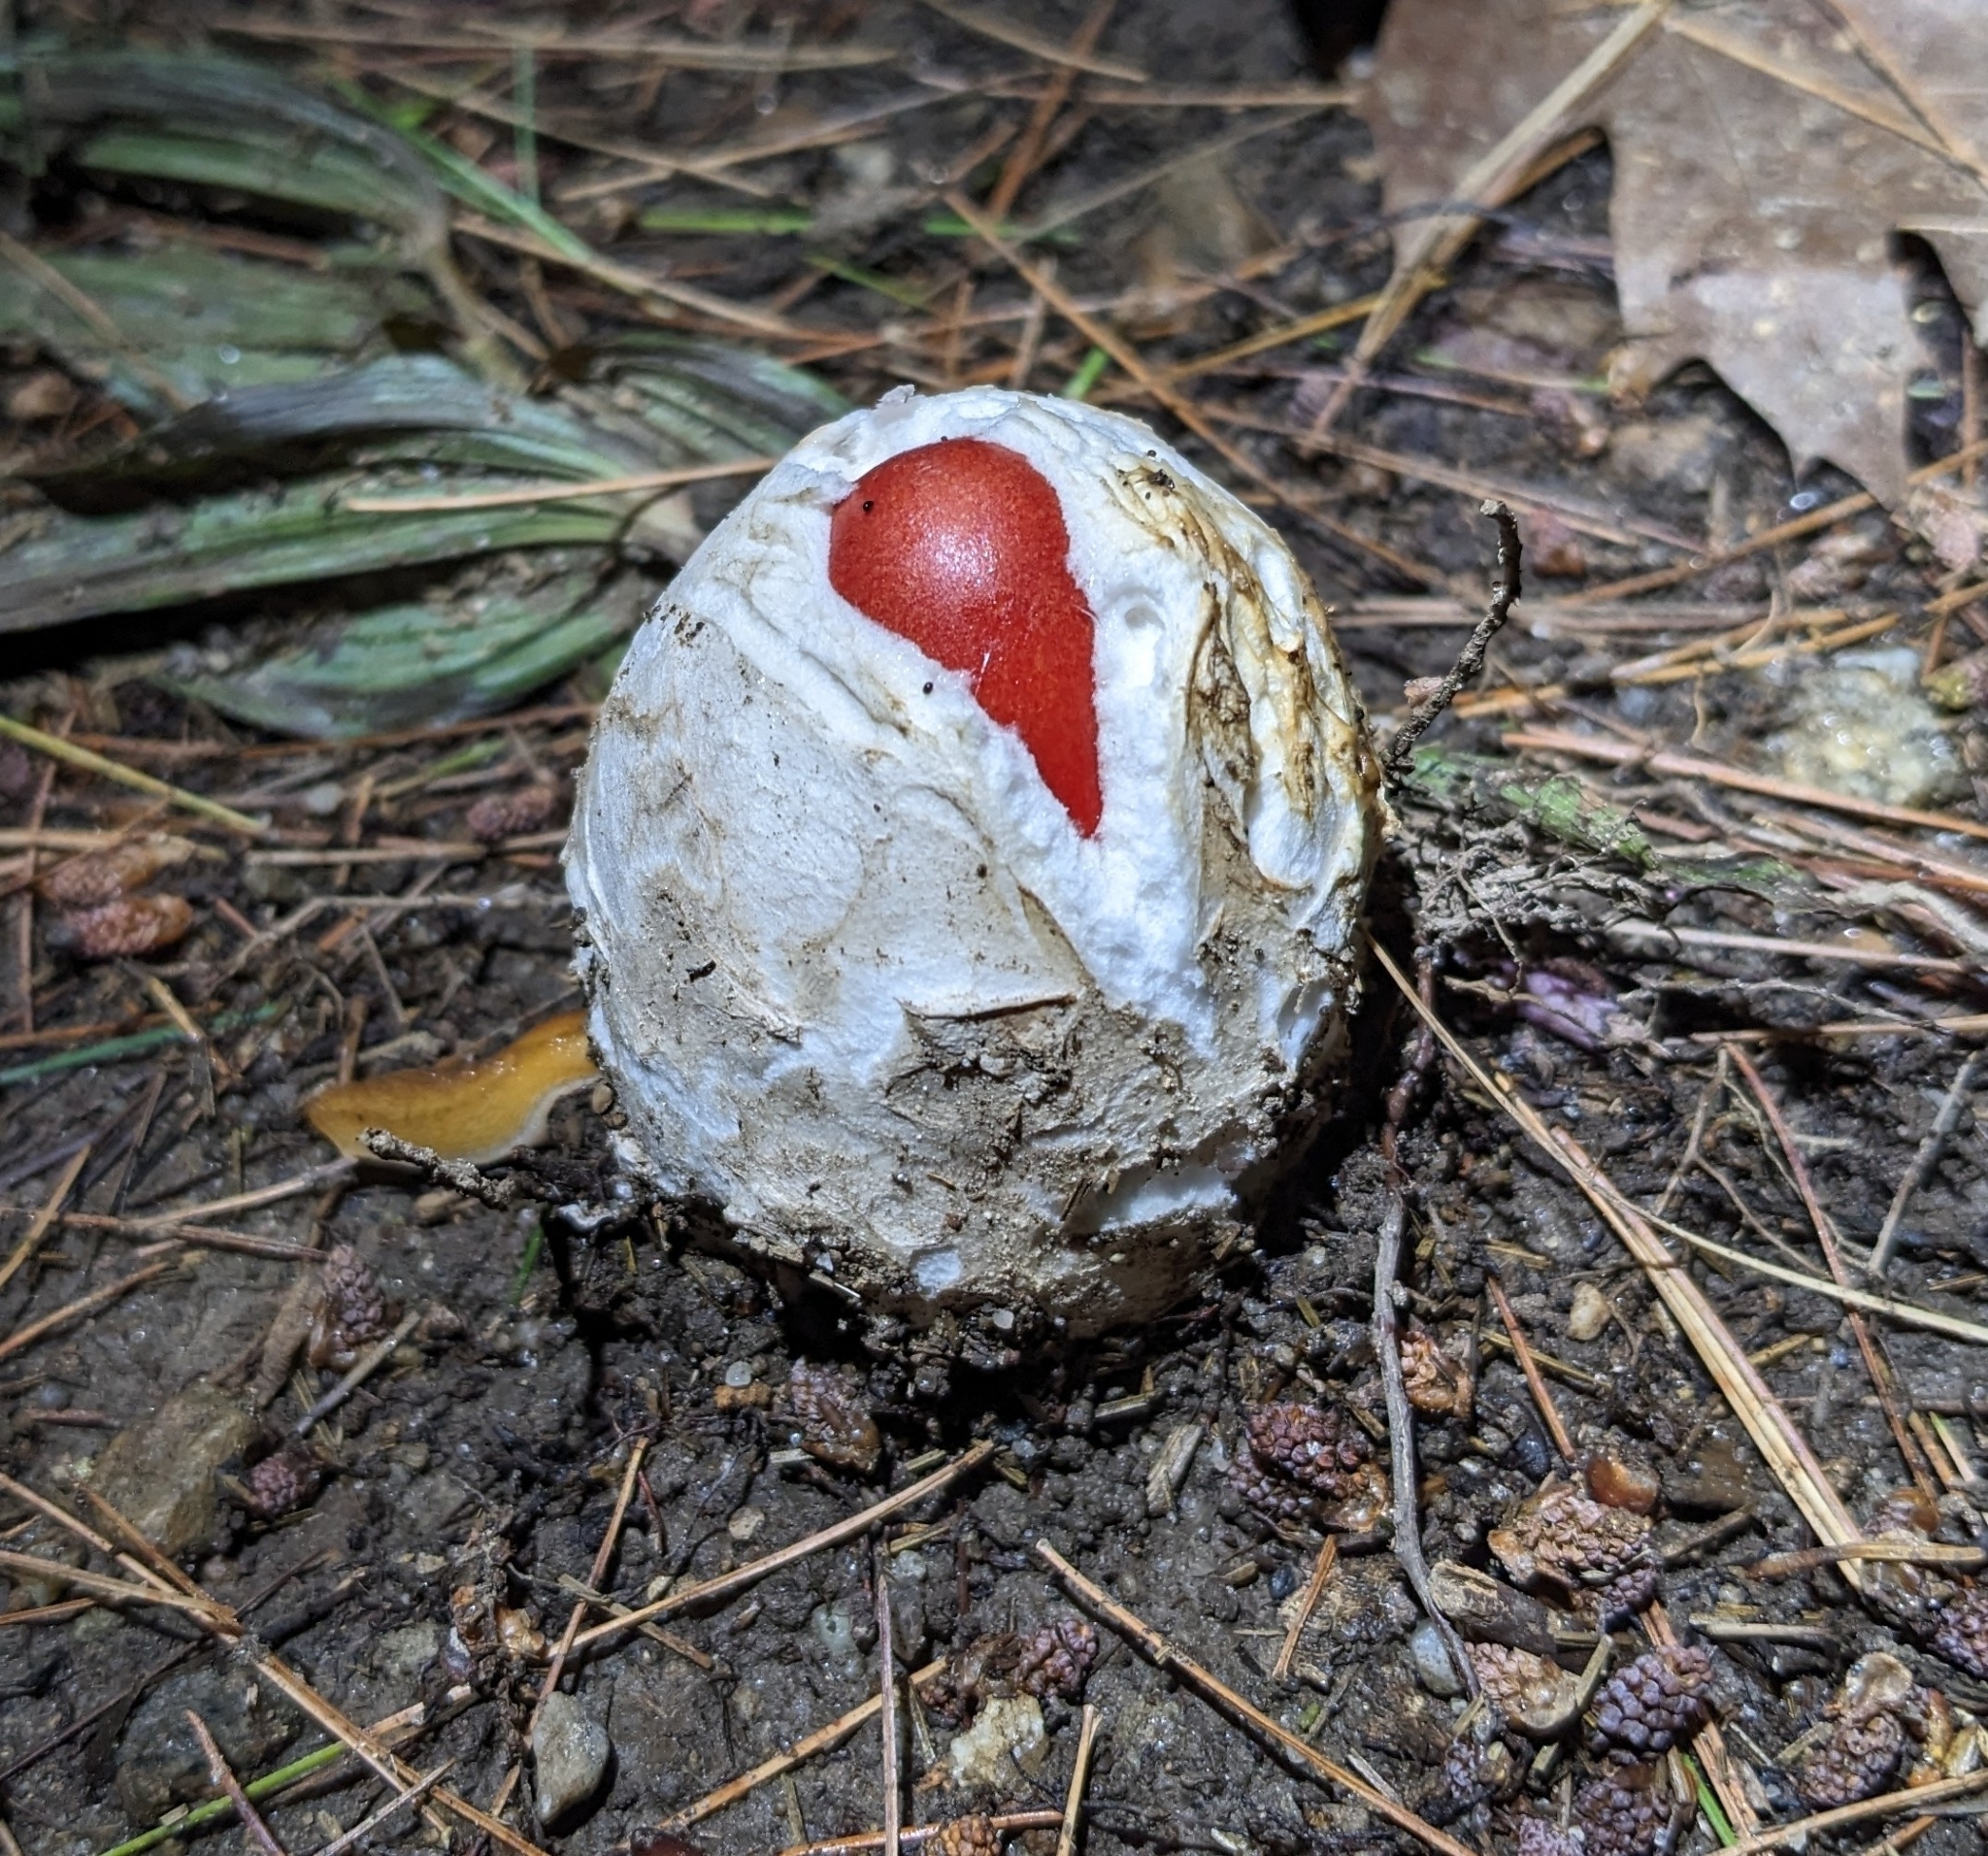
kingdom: Fungi
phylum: Basidiomycota
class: Agaricomycetes
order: Agaricales
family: Amanitaceae
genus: Amanita
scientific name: Amanita jacksonii
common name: Jackson's slender caesar
